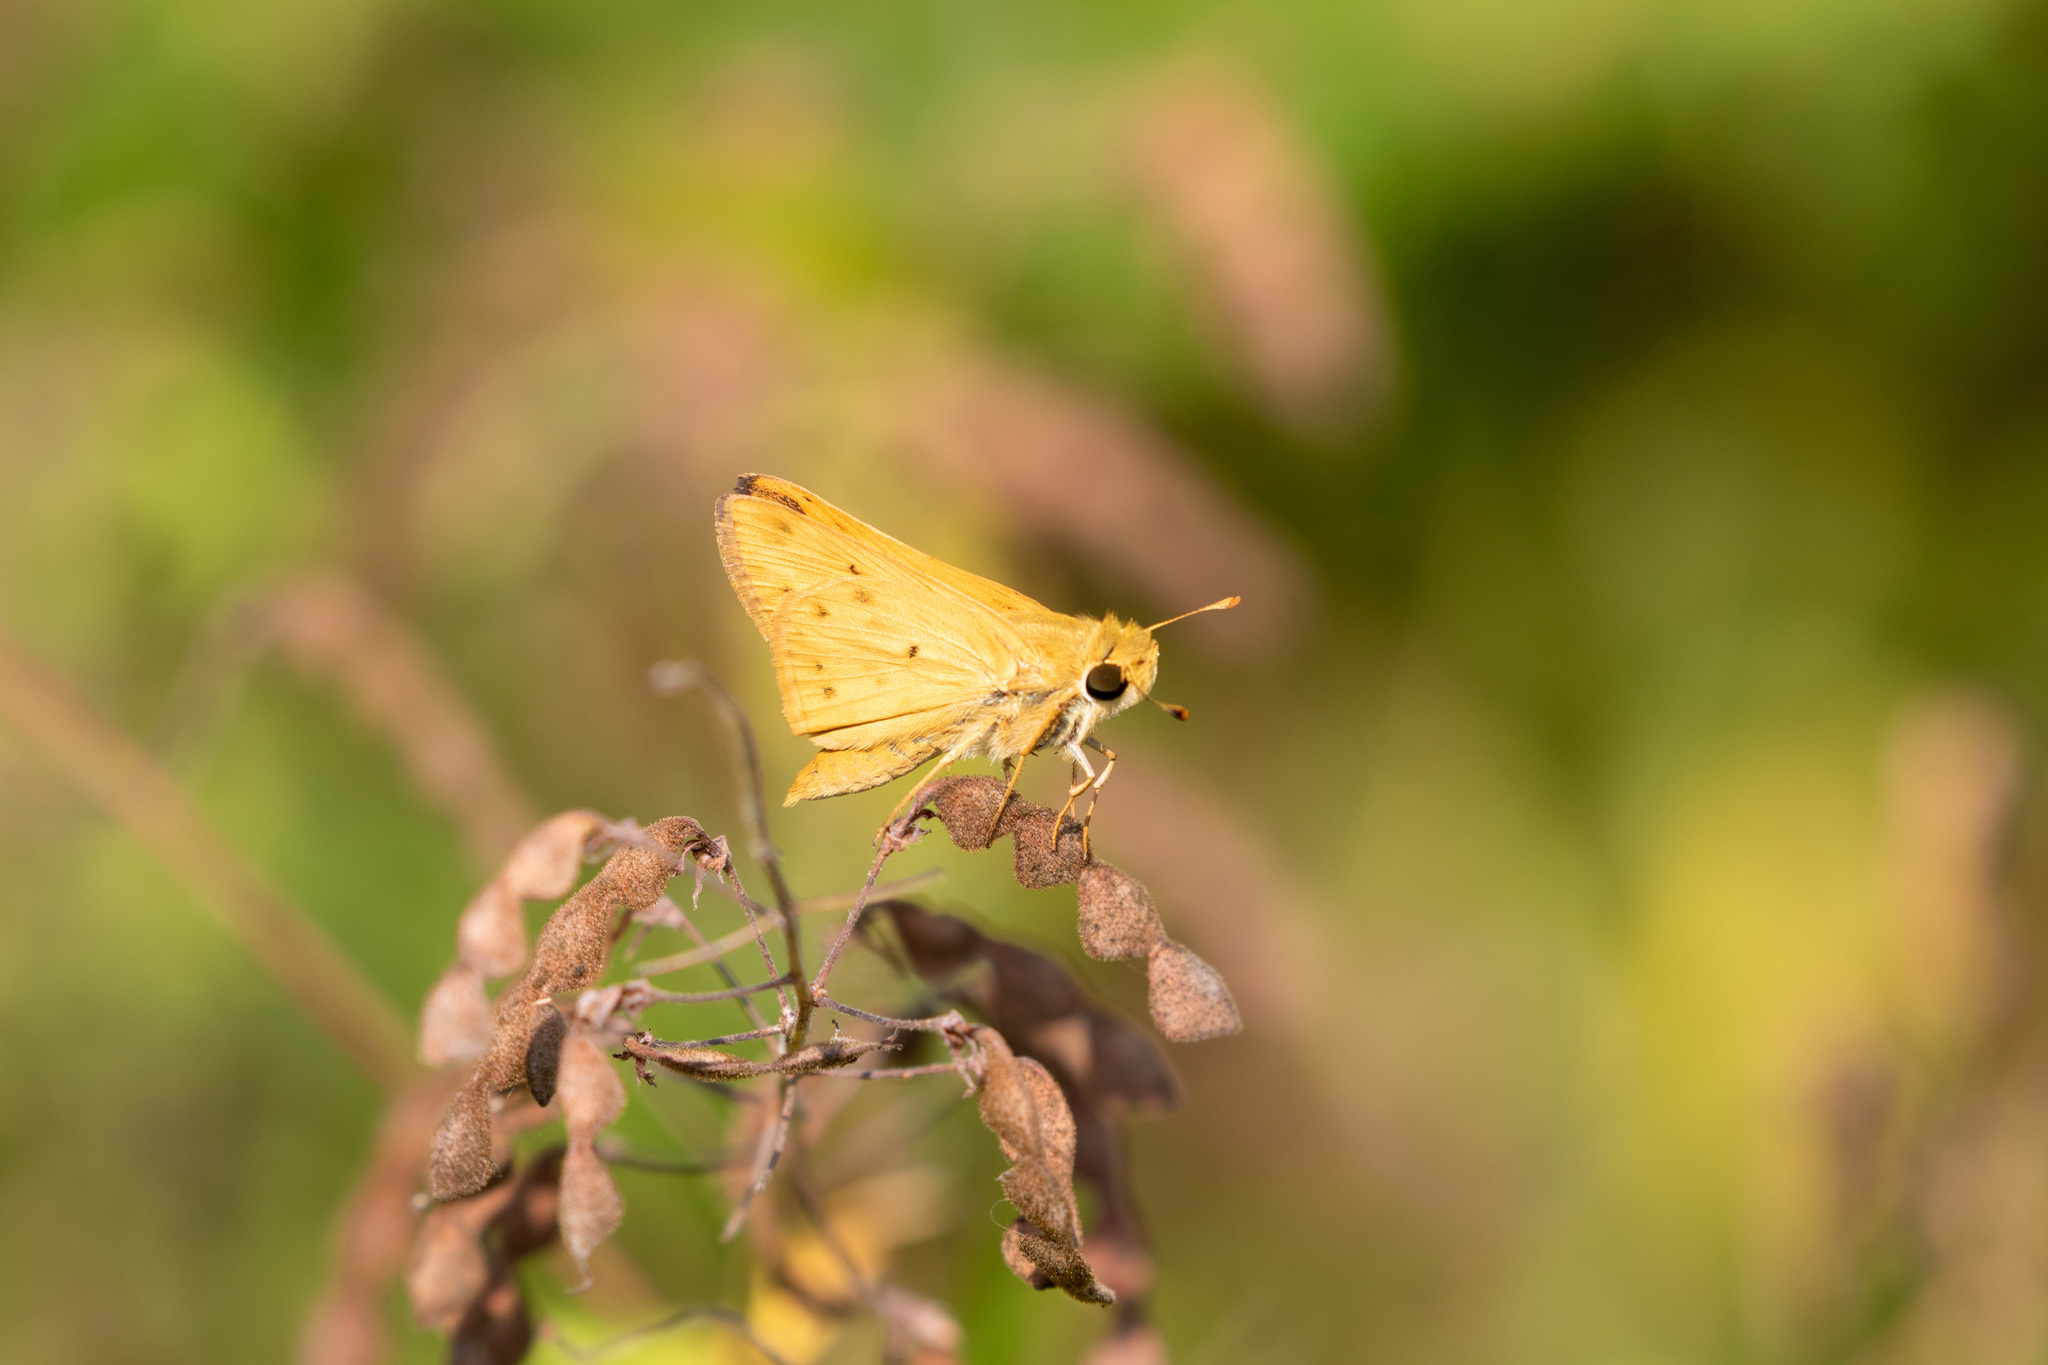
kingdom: Animalia
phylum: Arthropoda
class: Insecta
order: Lepidoptera
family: Hesperiidae
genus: Hylephila
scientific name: Hylephila phyleus
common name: Fiery skipper
